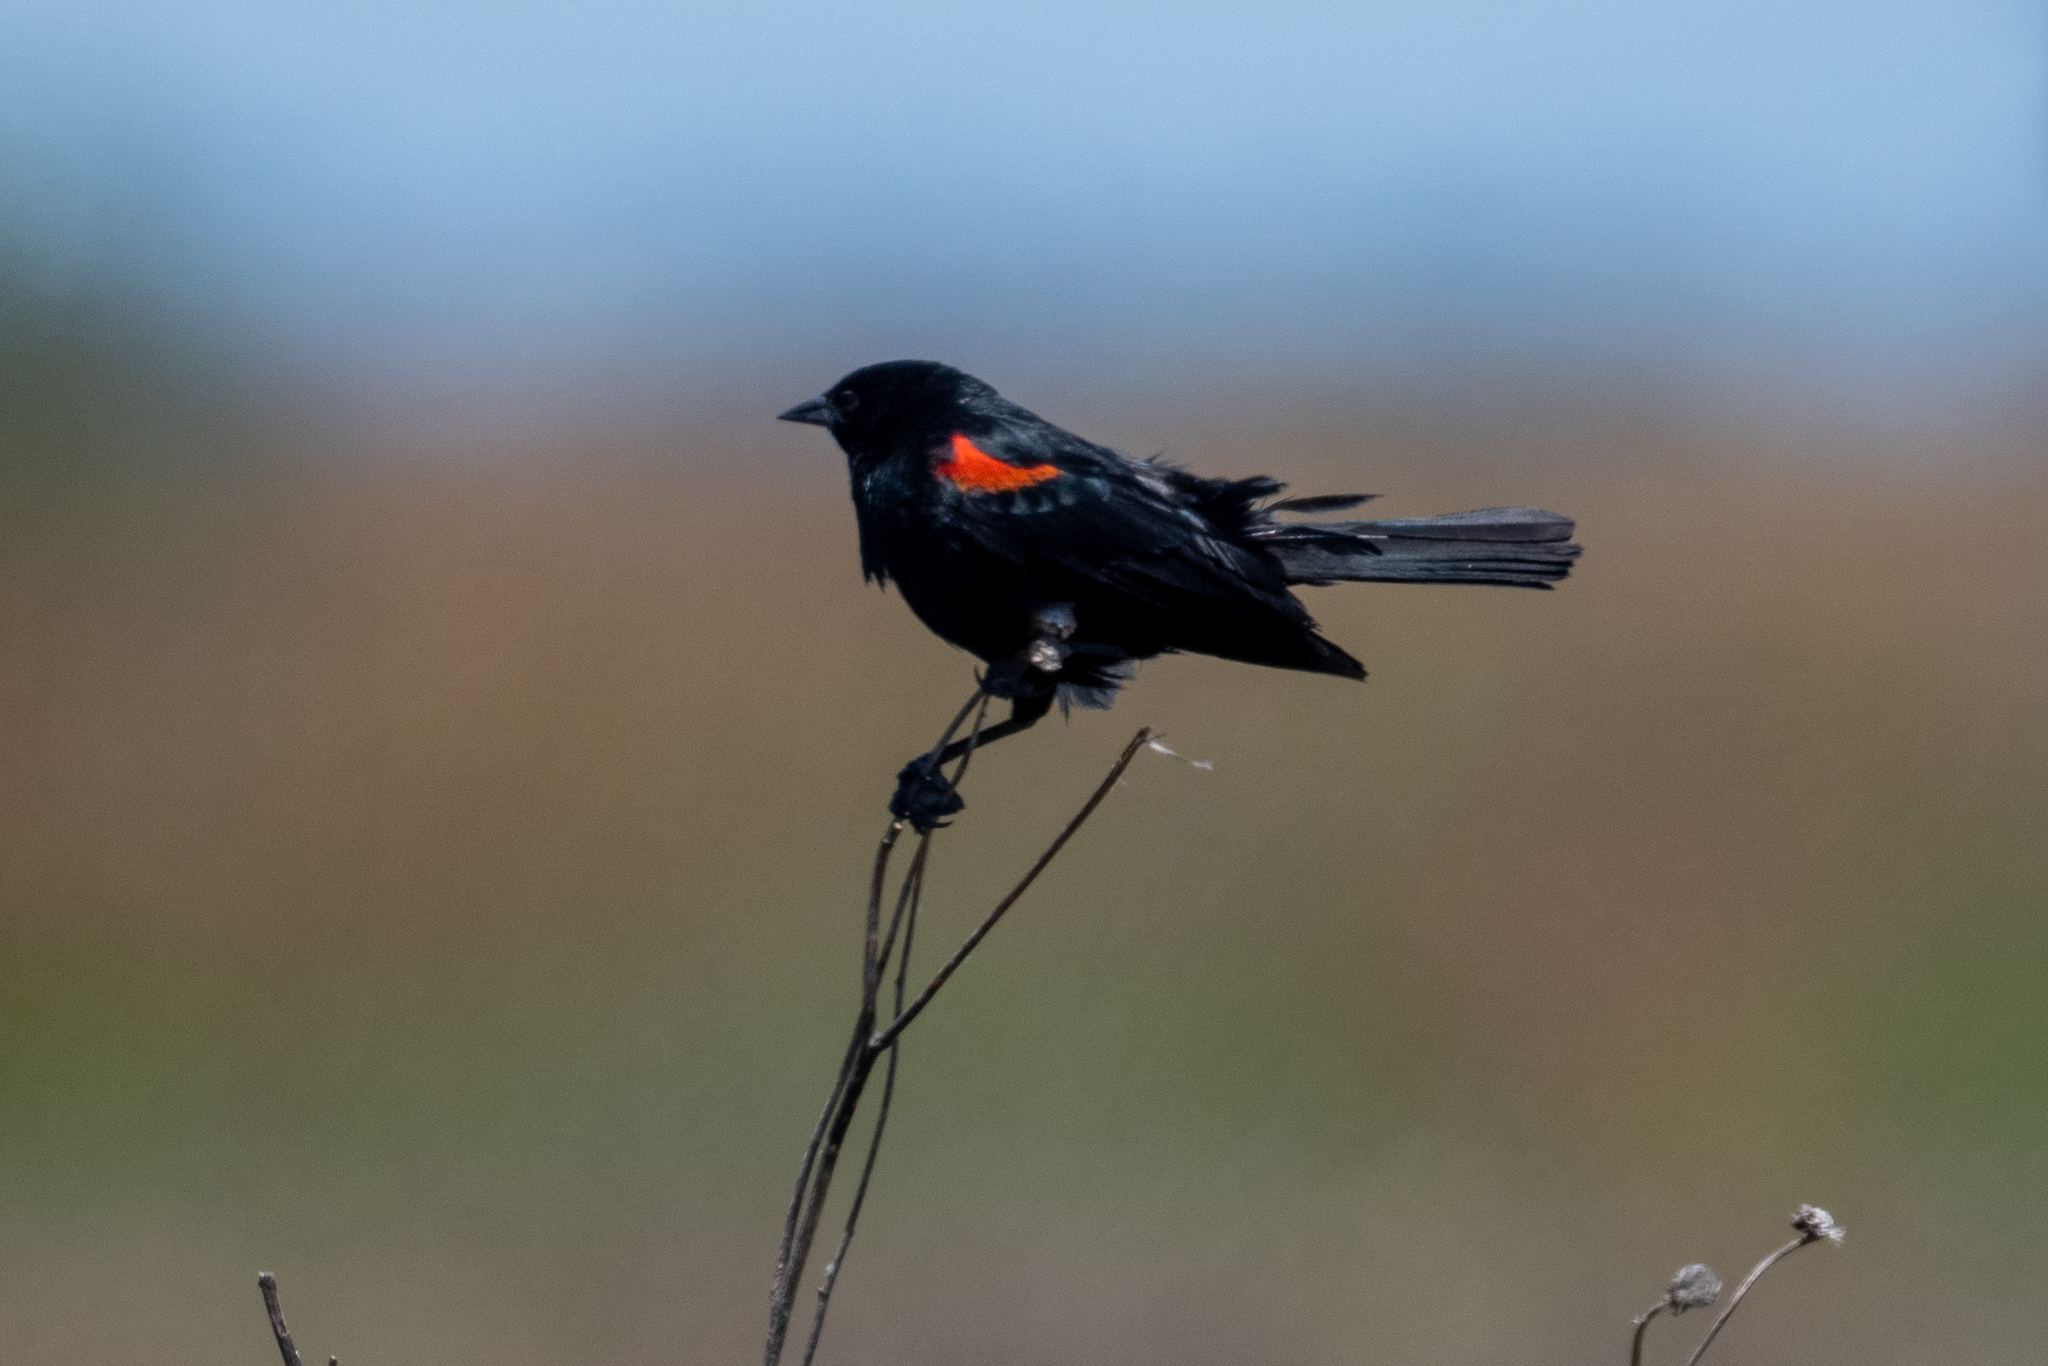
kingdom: Animalia
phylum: Chordata
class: Aves
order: Passeriformes
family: Icteridae
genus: Agelaius
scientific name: Agelaius phoeniceus
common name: Red-winged blackbird
